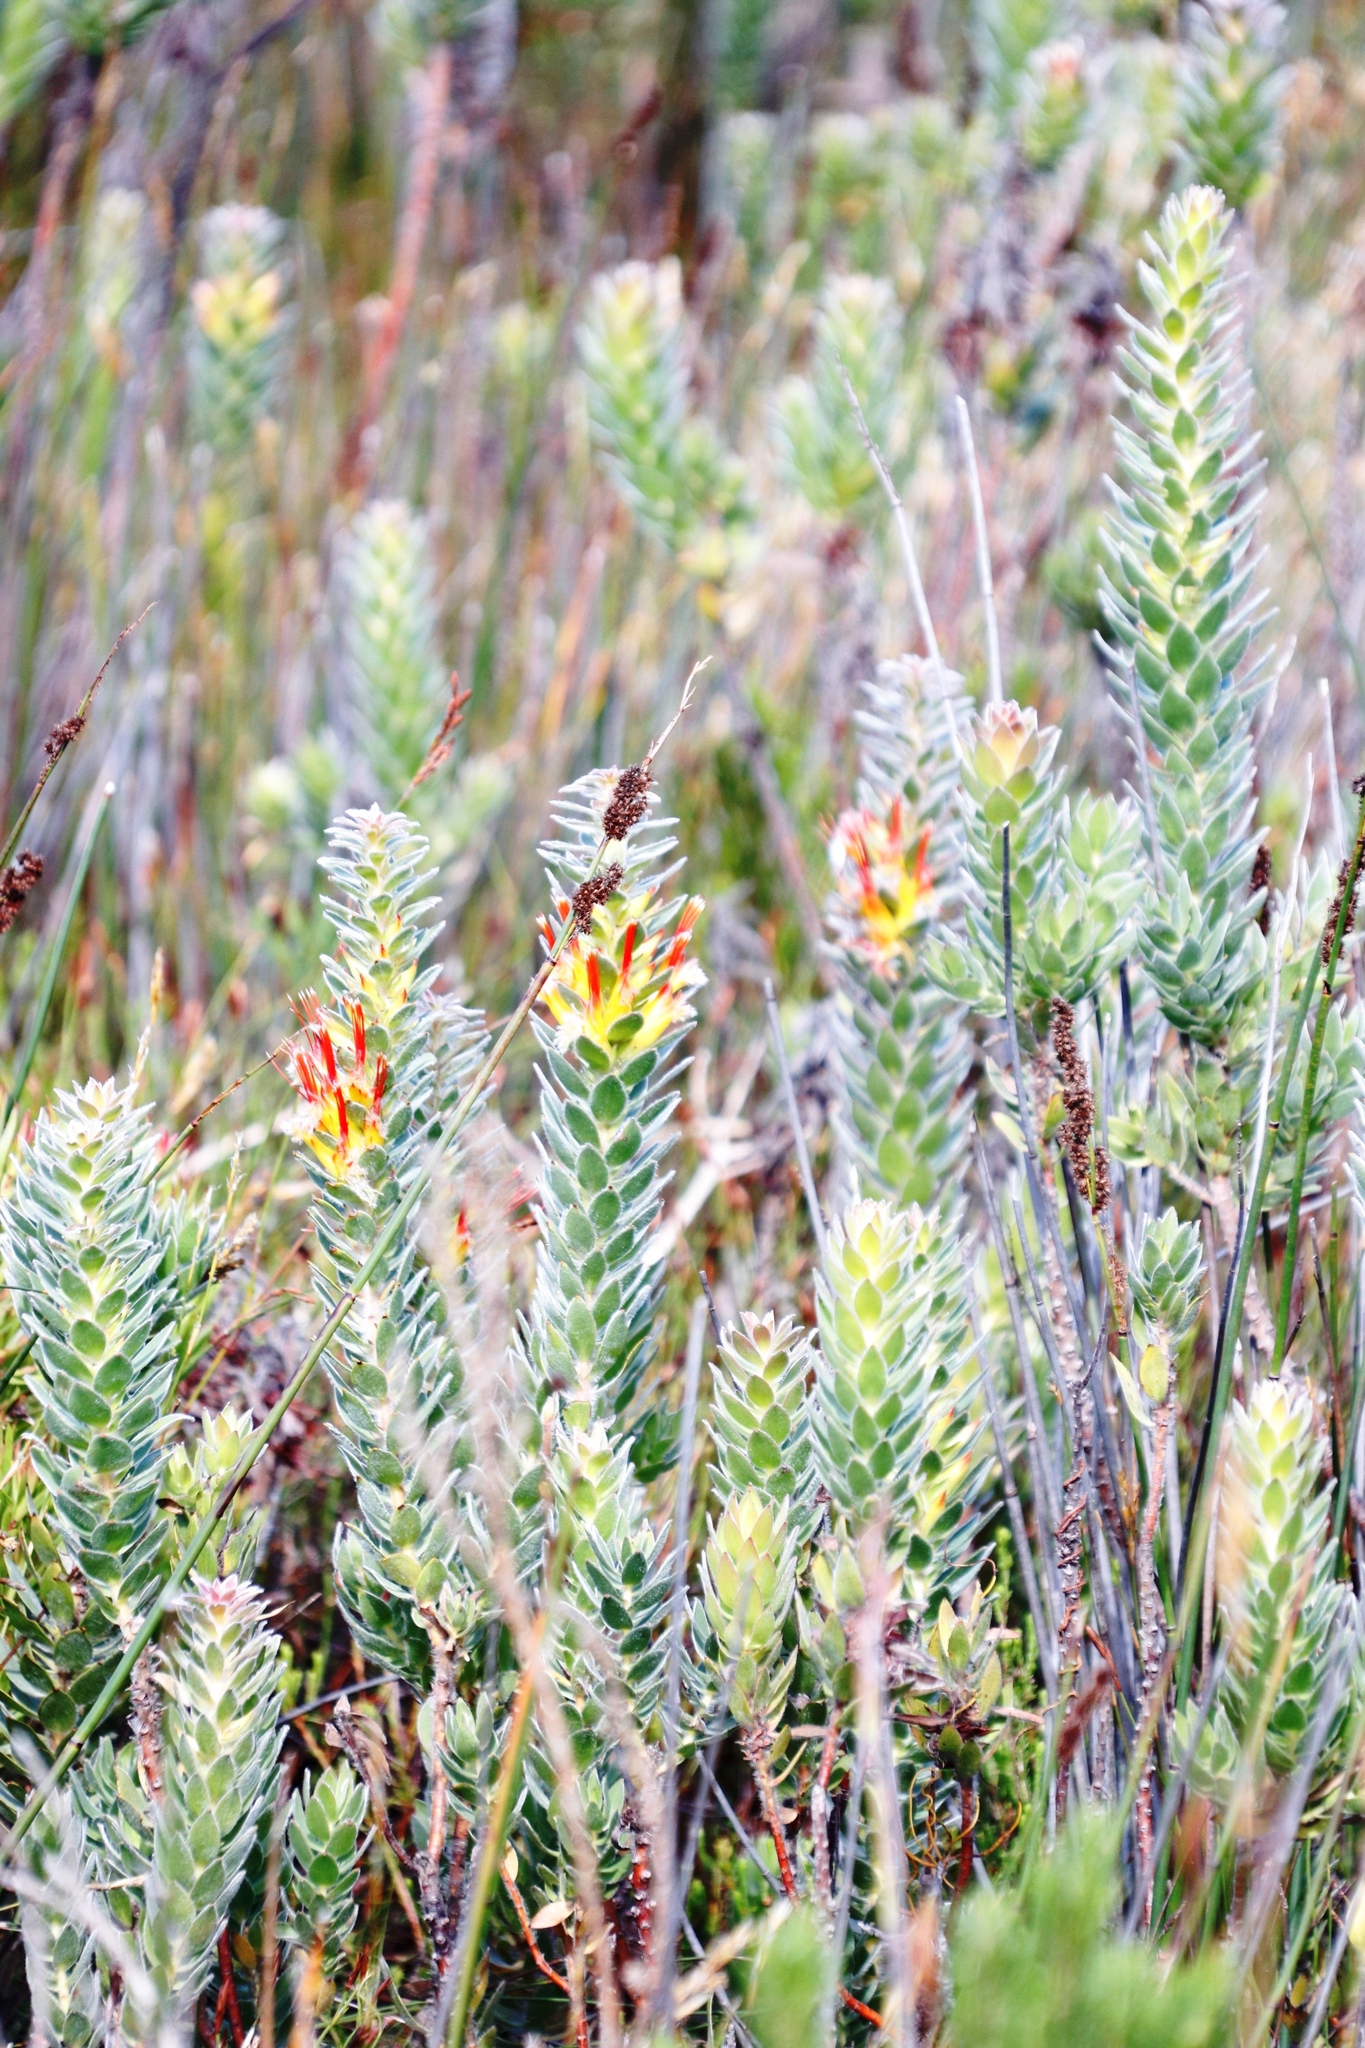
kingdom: Plantae
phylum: Tracheophyta
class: Magnoliopsida
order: Proteales
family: Proteaceae
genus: Mimetes
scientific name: Mimetes hirtus
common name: Marsh pagoda
